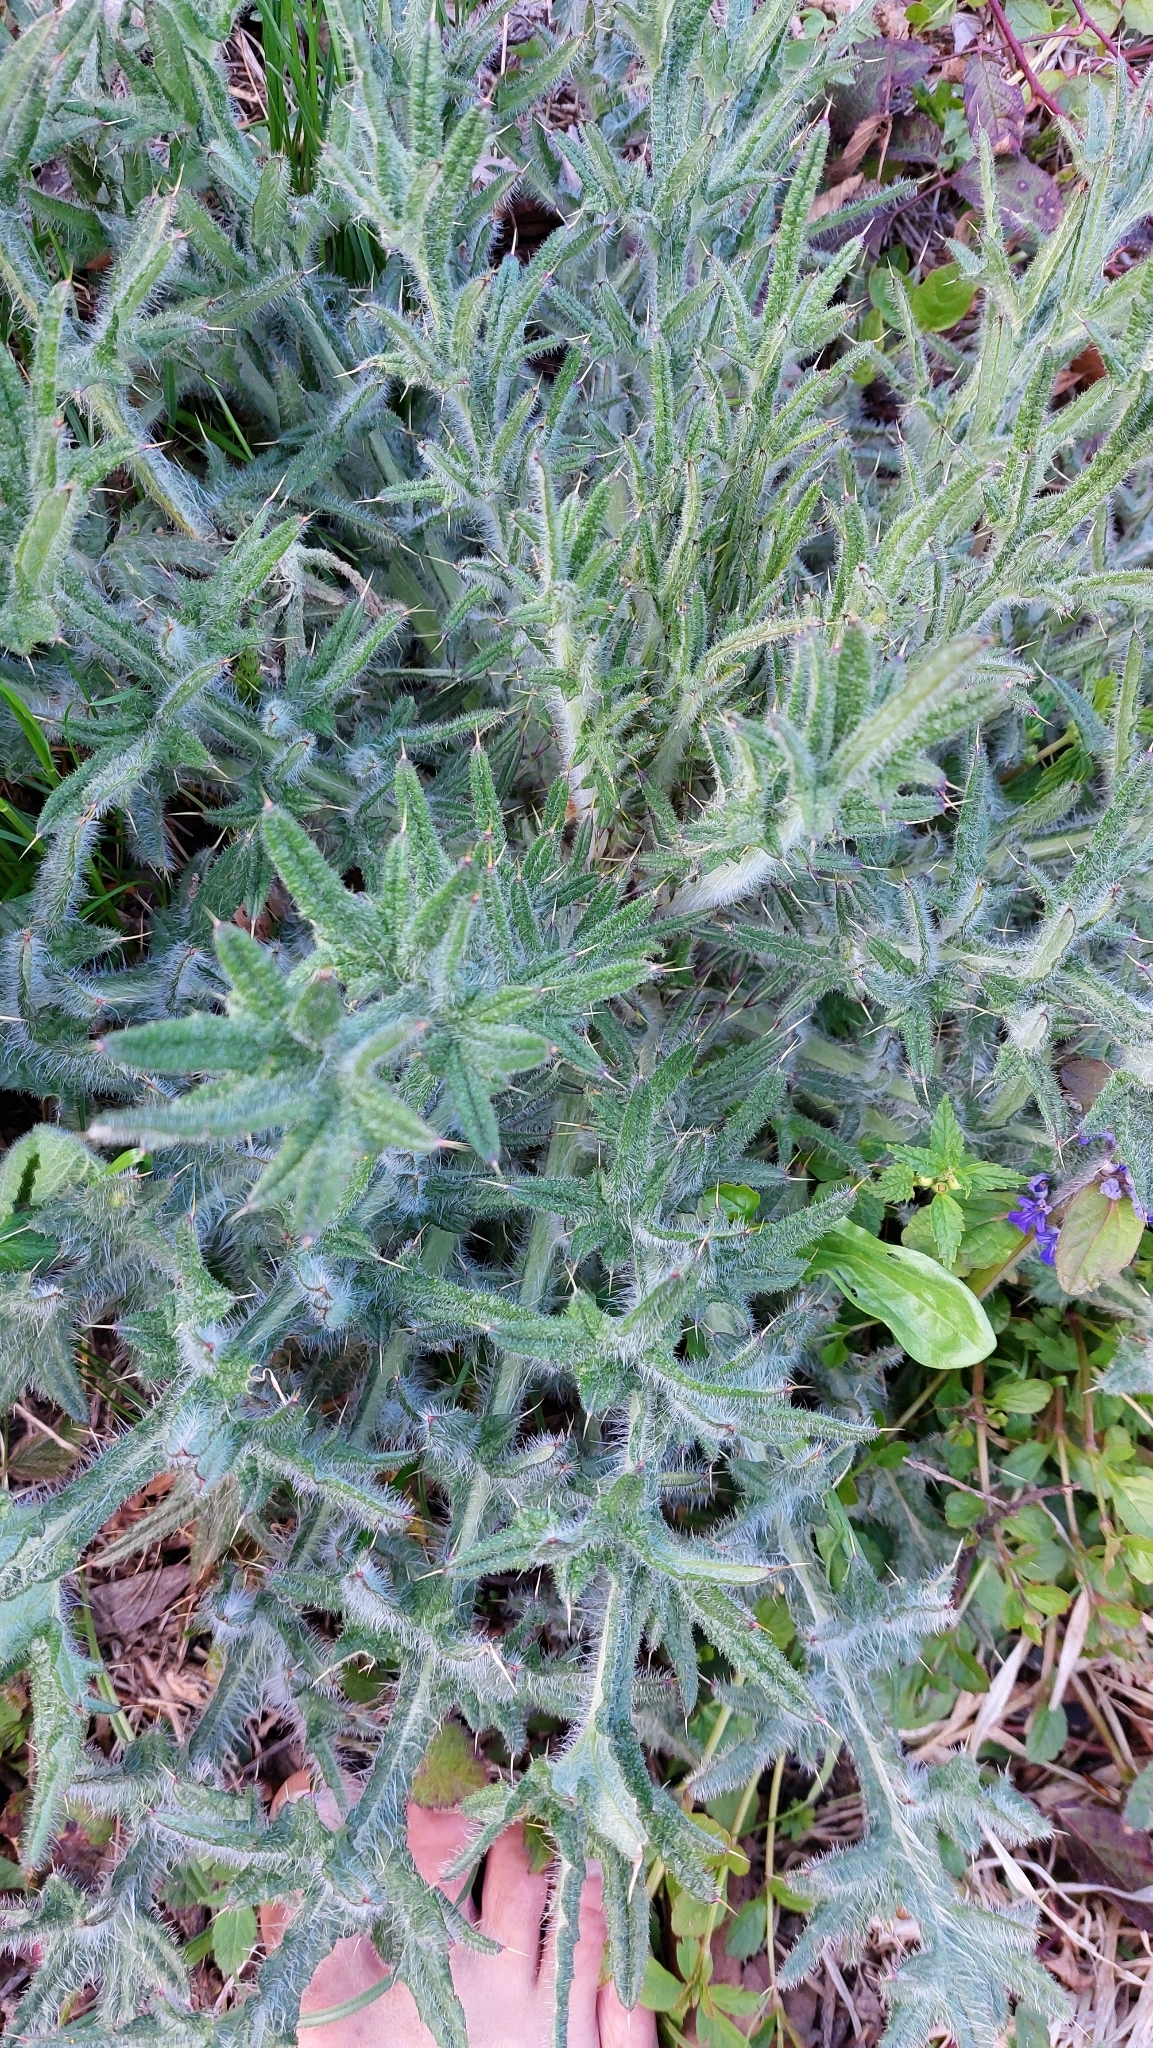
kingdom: Plantae
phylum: Tracheophyta
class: Magnoliopsida
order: Asterales
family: Asteraceae
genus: Cirsium
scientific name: Cirsium vulgare
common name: Bull thistle
